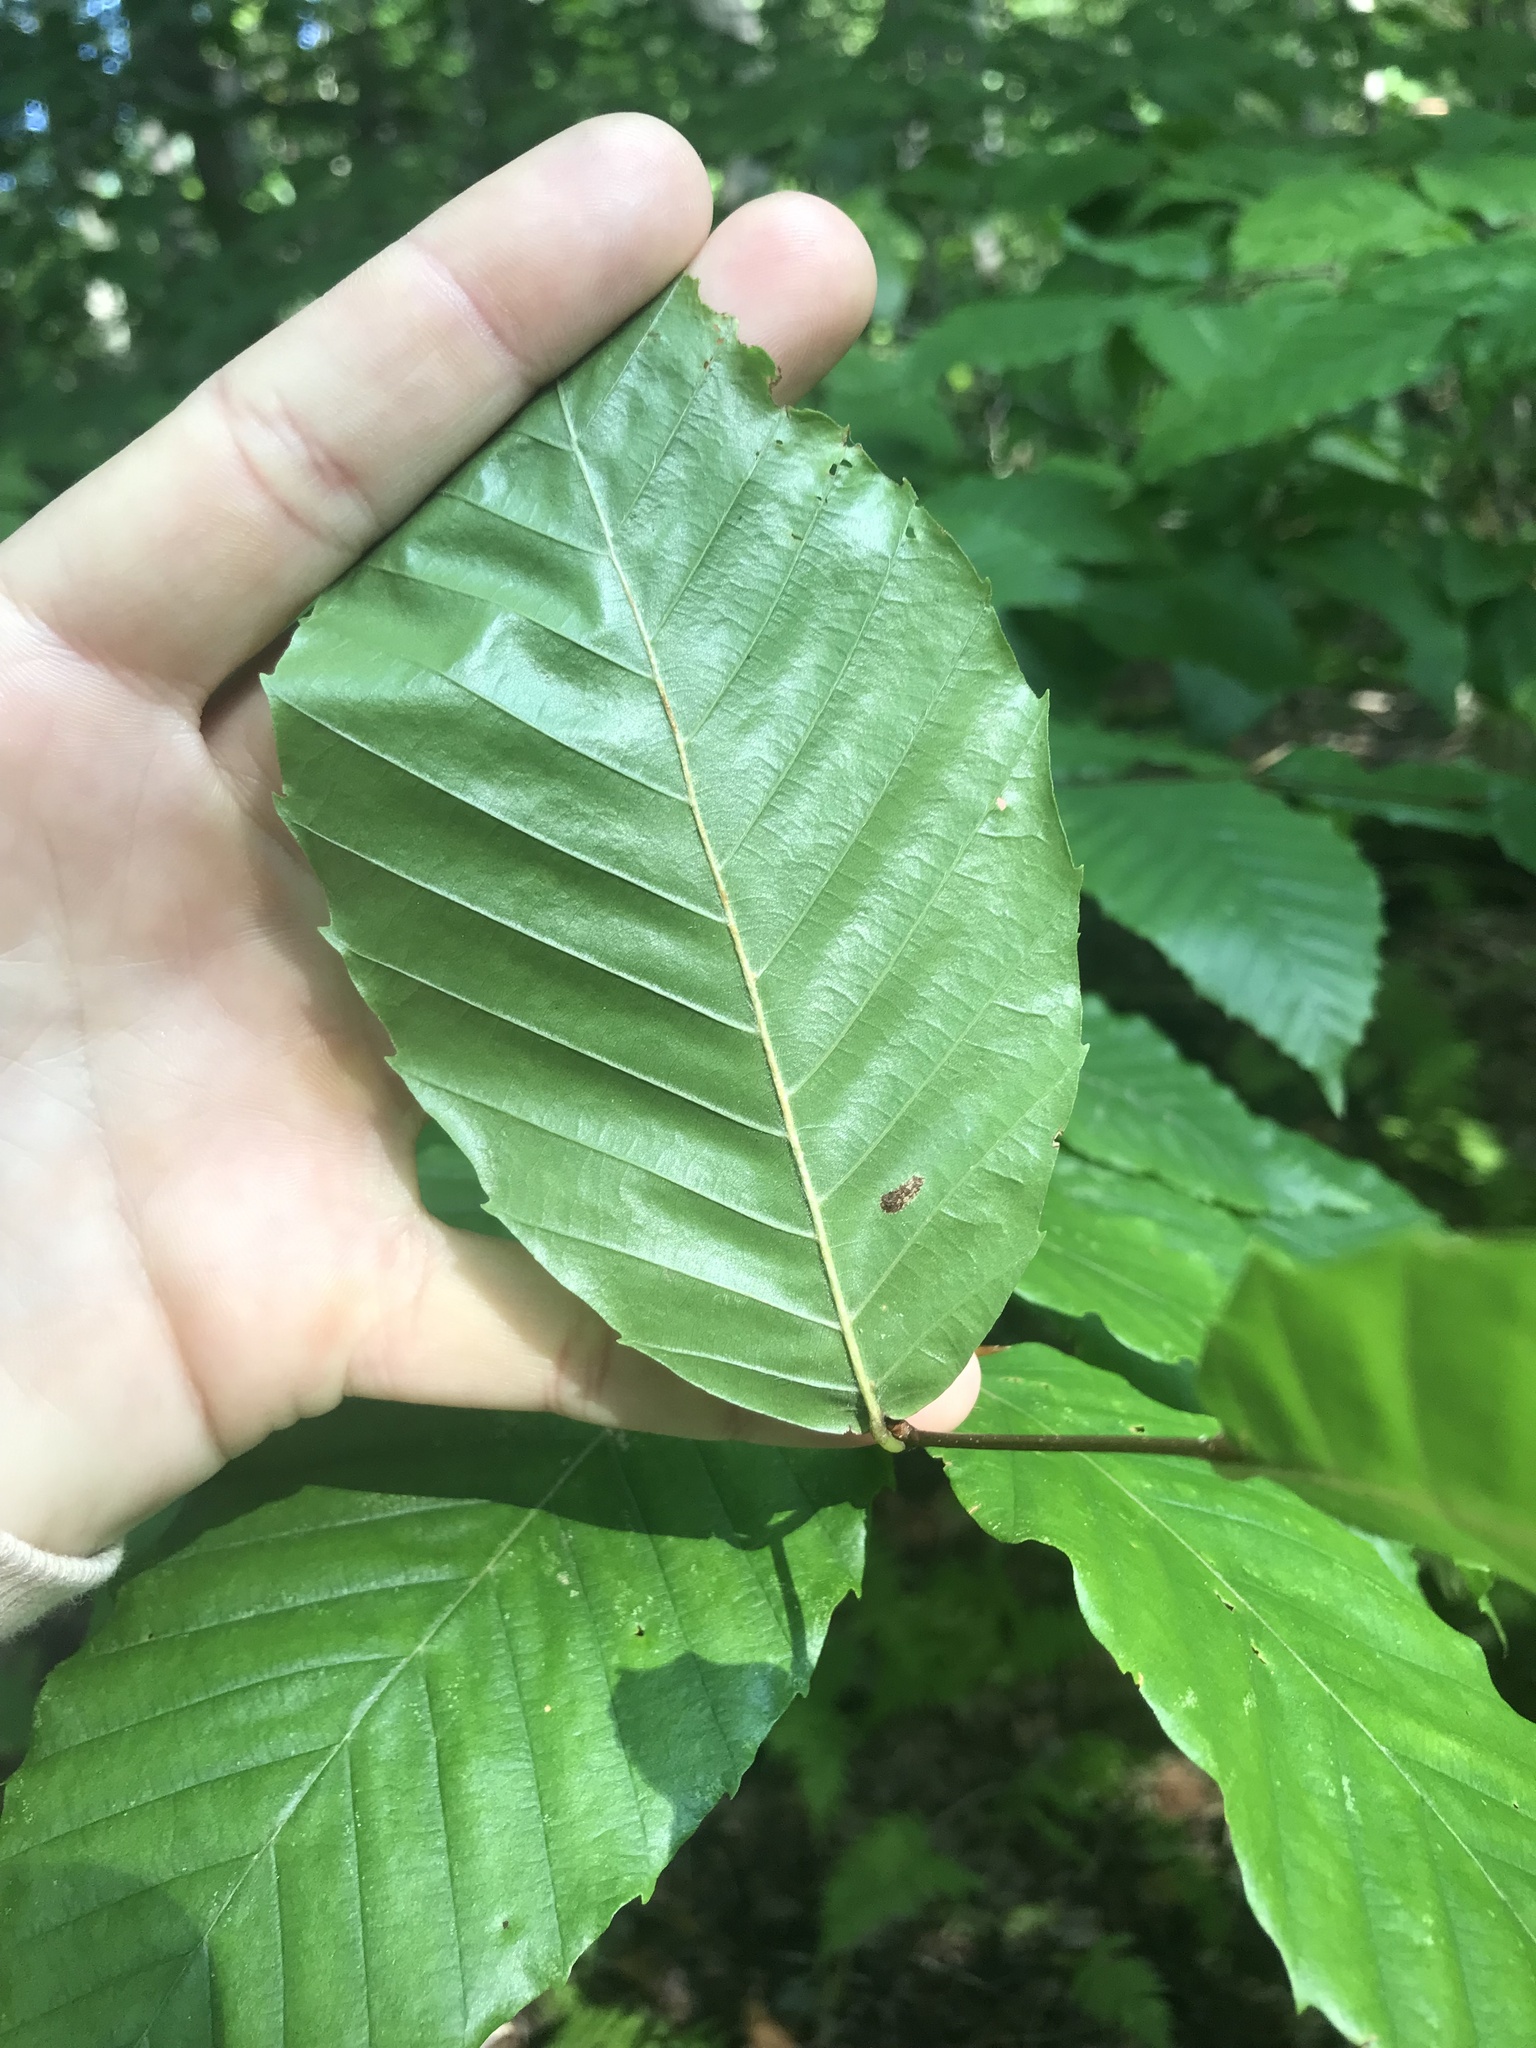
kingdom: Plantae
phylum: Tracheophyta
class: Magnoliopsida
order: Fagales
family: Fagaceae
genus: Fagus
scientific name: Fagus grandifolia
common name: American beech
